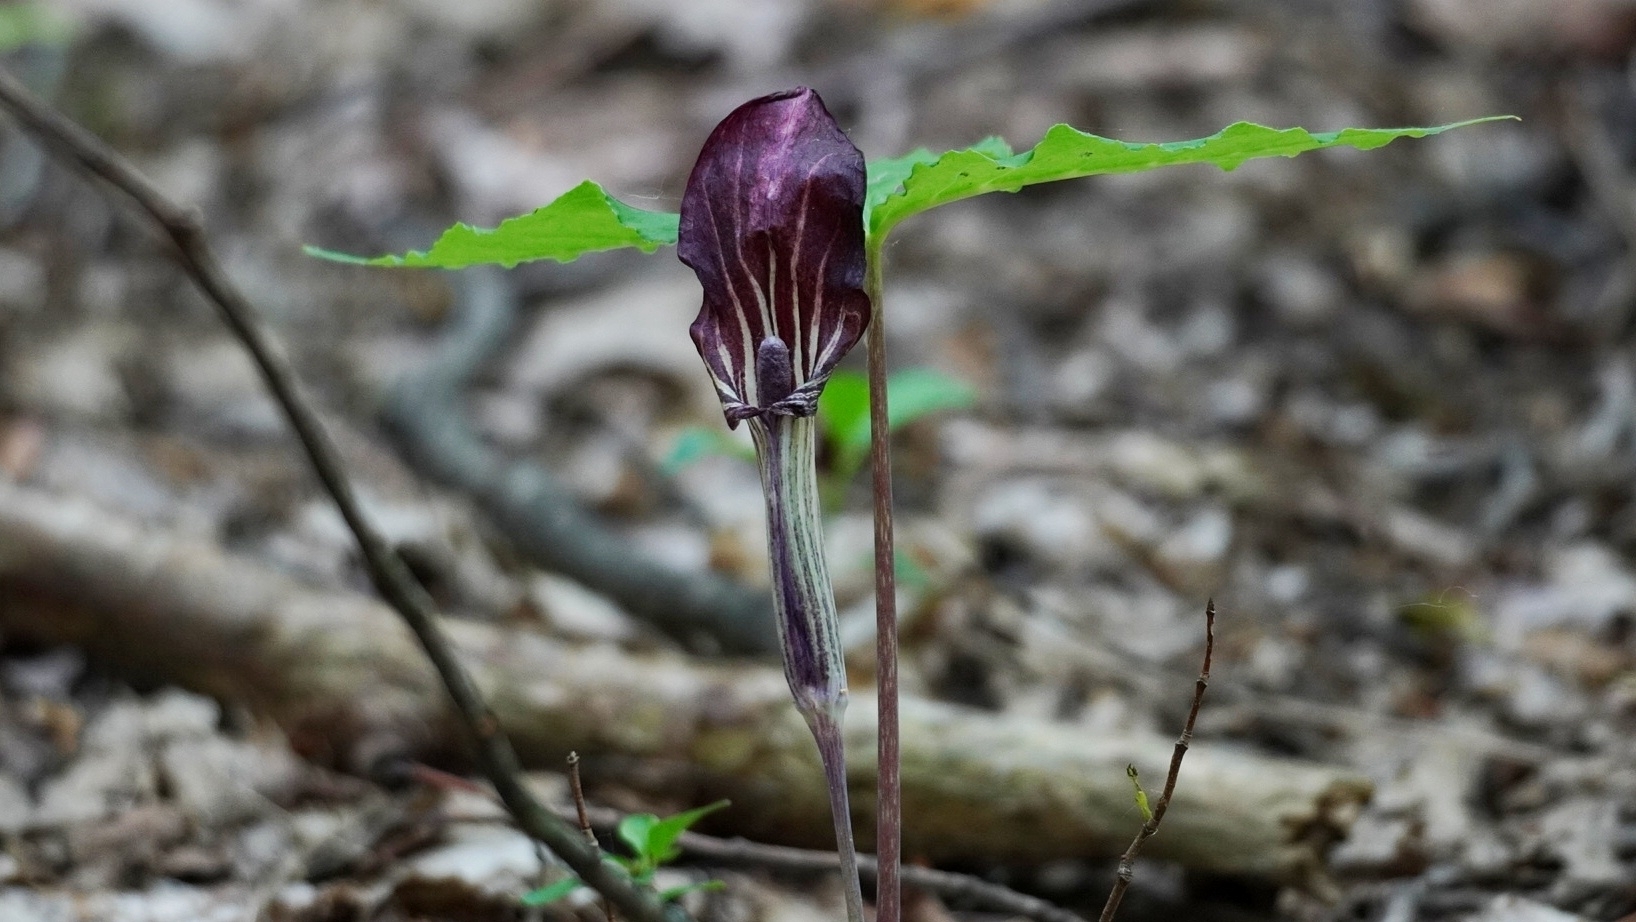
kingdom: Plantae
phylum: Tracheophyta
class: Liliopsida
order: Alismatales
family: Araceae
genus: Arisaema
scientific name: Arisaema triphyllum
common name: Jack-in-the-pulpit
